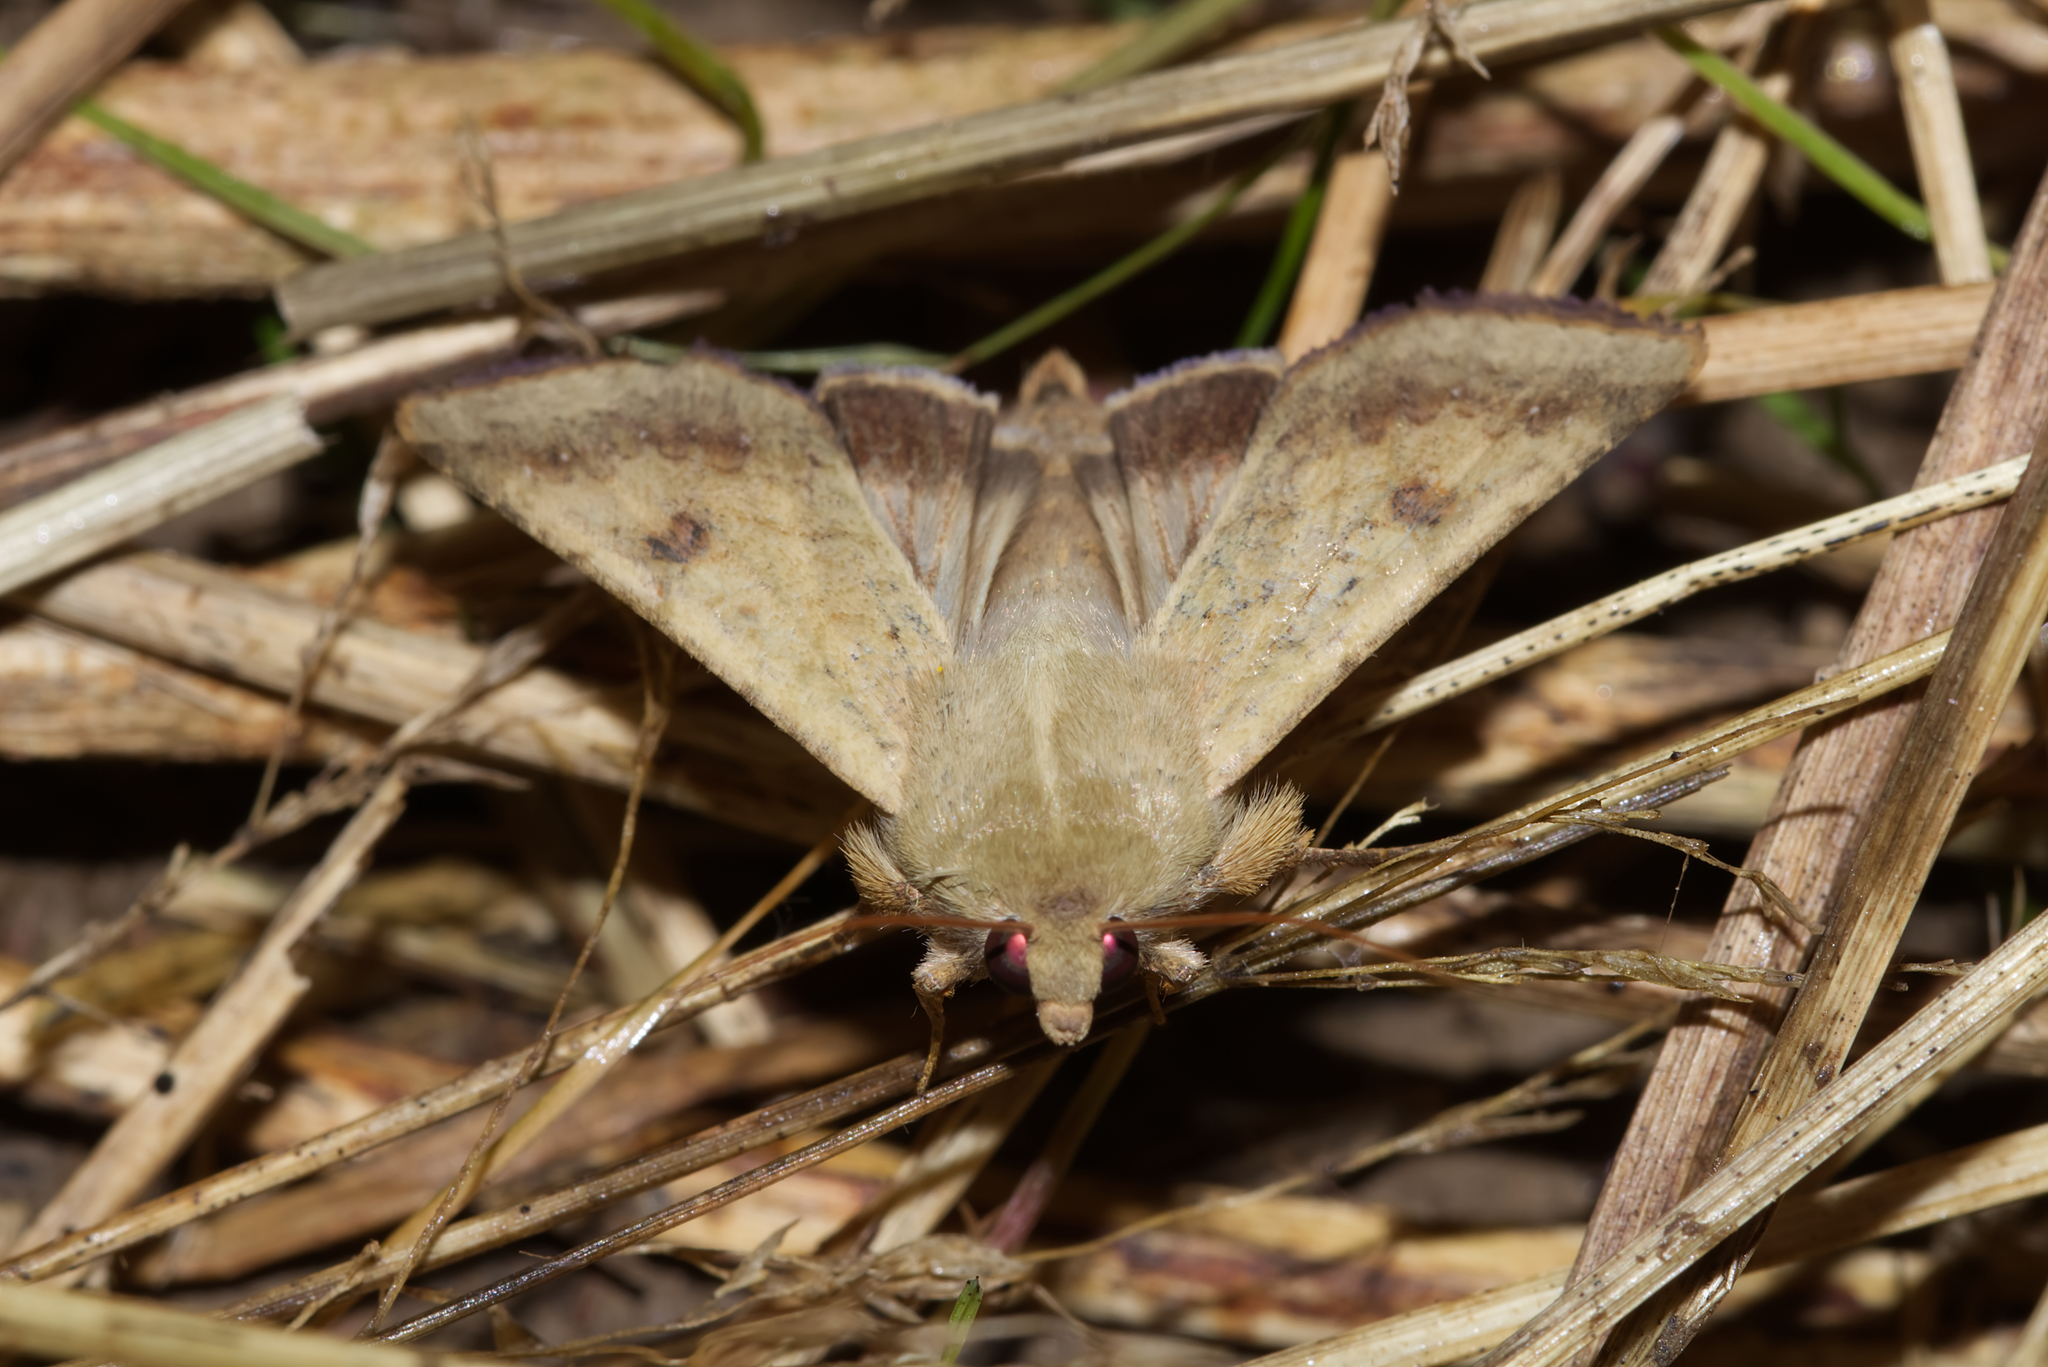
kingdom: Animalia
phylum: Arthropoda
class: Insecta
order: Lepidoptera
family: Noctuidae
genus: Helicoverpa
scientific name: Helicoverpa armigera
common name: Cotton bollworm
